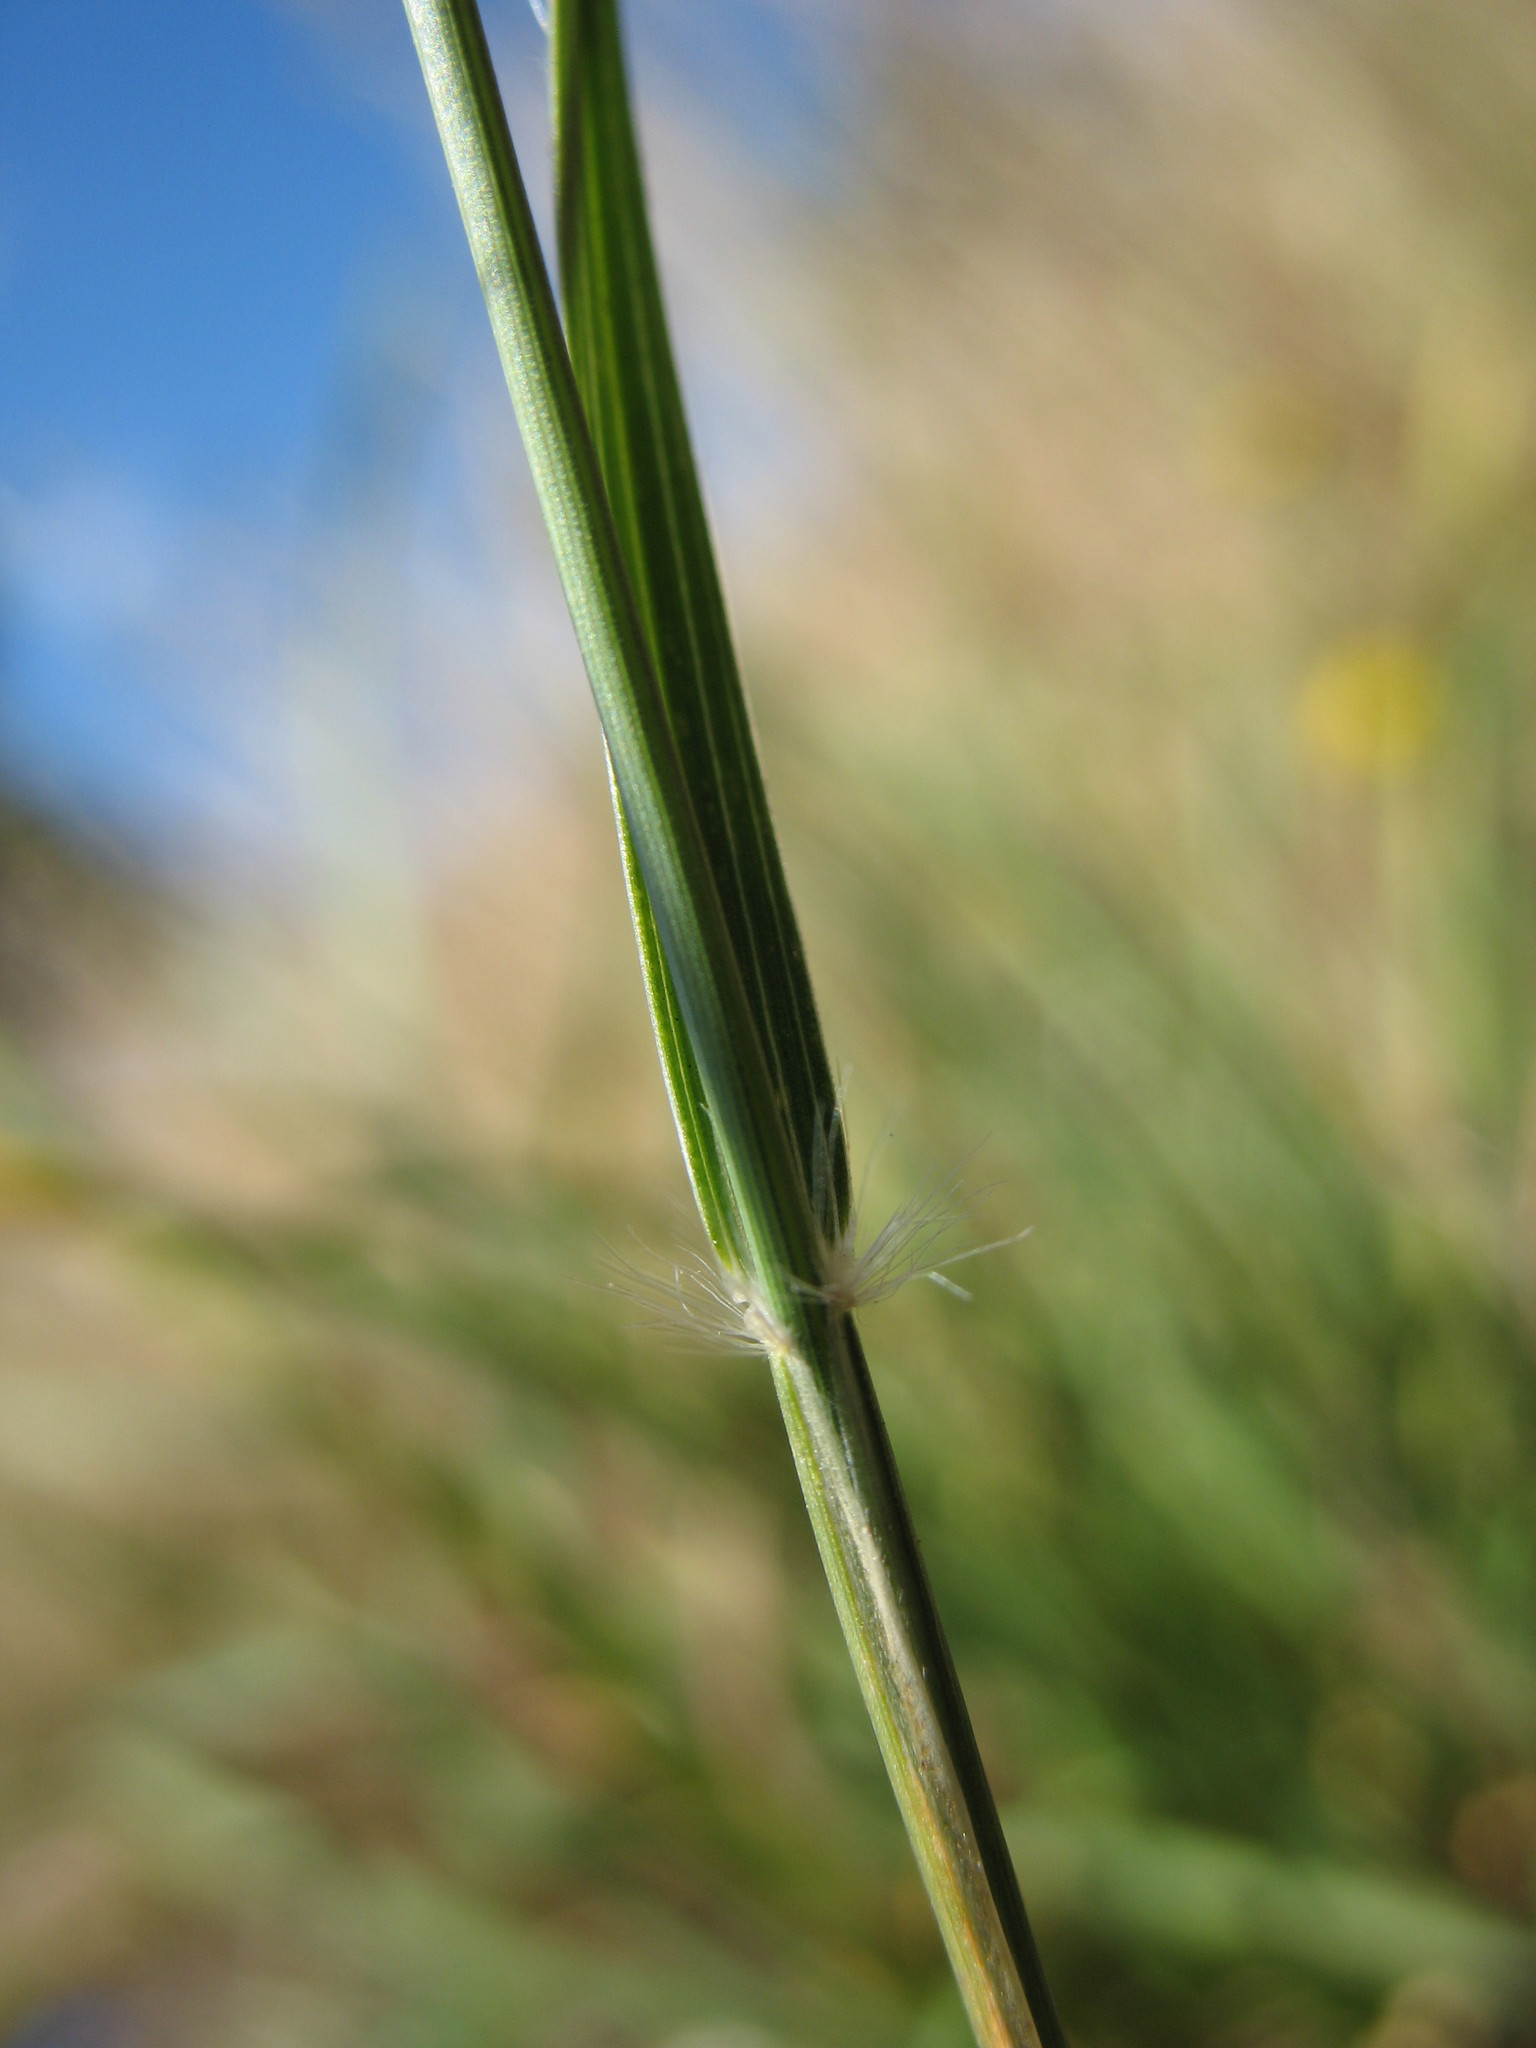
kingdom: Plantae
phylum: Tracheophyta
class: Liliopsida
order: Poales
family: Poaceae
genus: Rytidosperma
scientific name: Rytidosperma caespitosum
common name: Tufted wallaby grass
